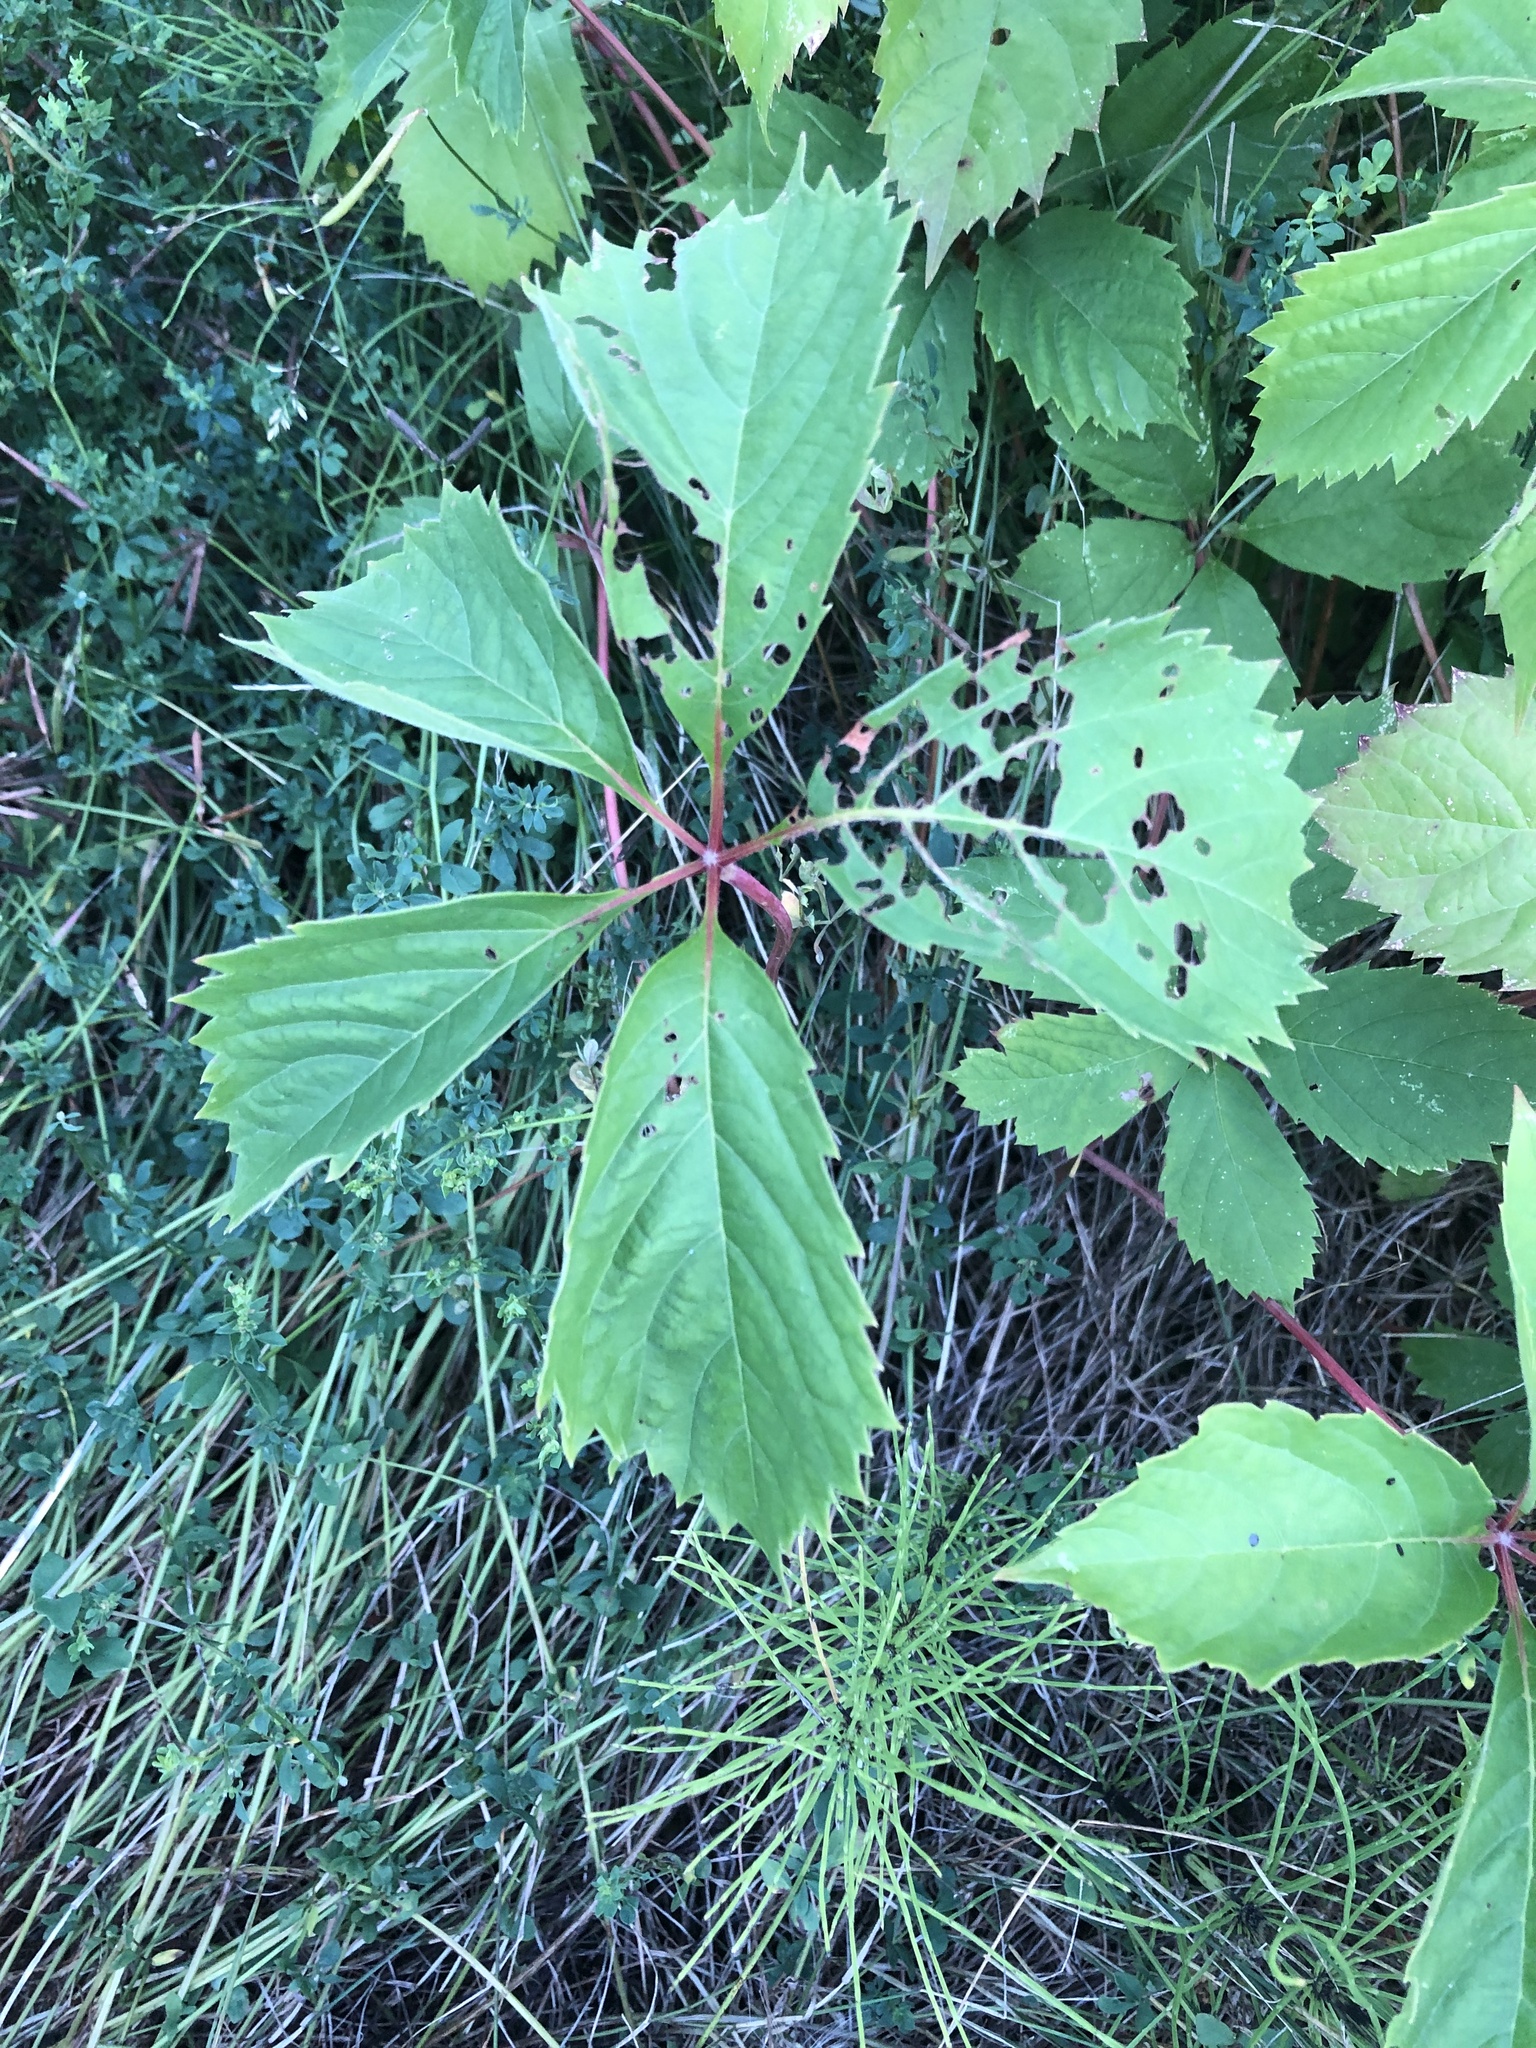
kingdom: Plantae
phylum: Tracheophyta
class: Magnoliopsida
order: Vitales
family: Vitaceae
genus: Parthenocissus
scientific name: Parthenocissus inserta
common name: False virginia-creeper
